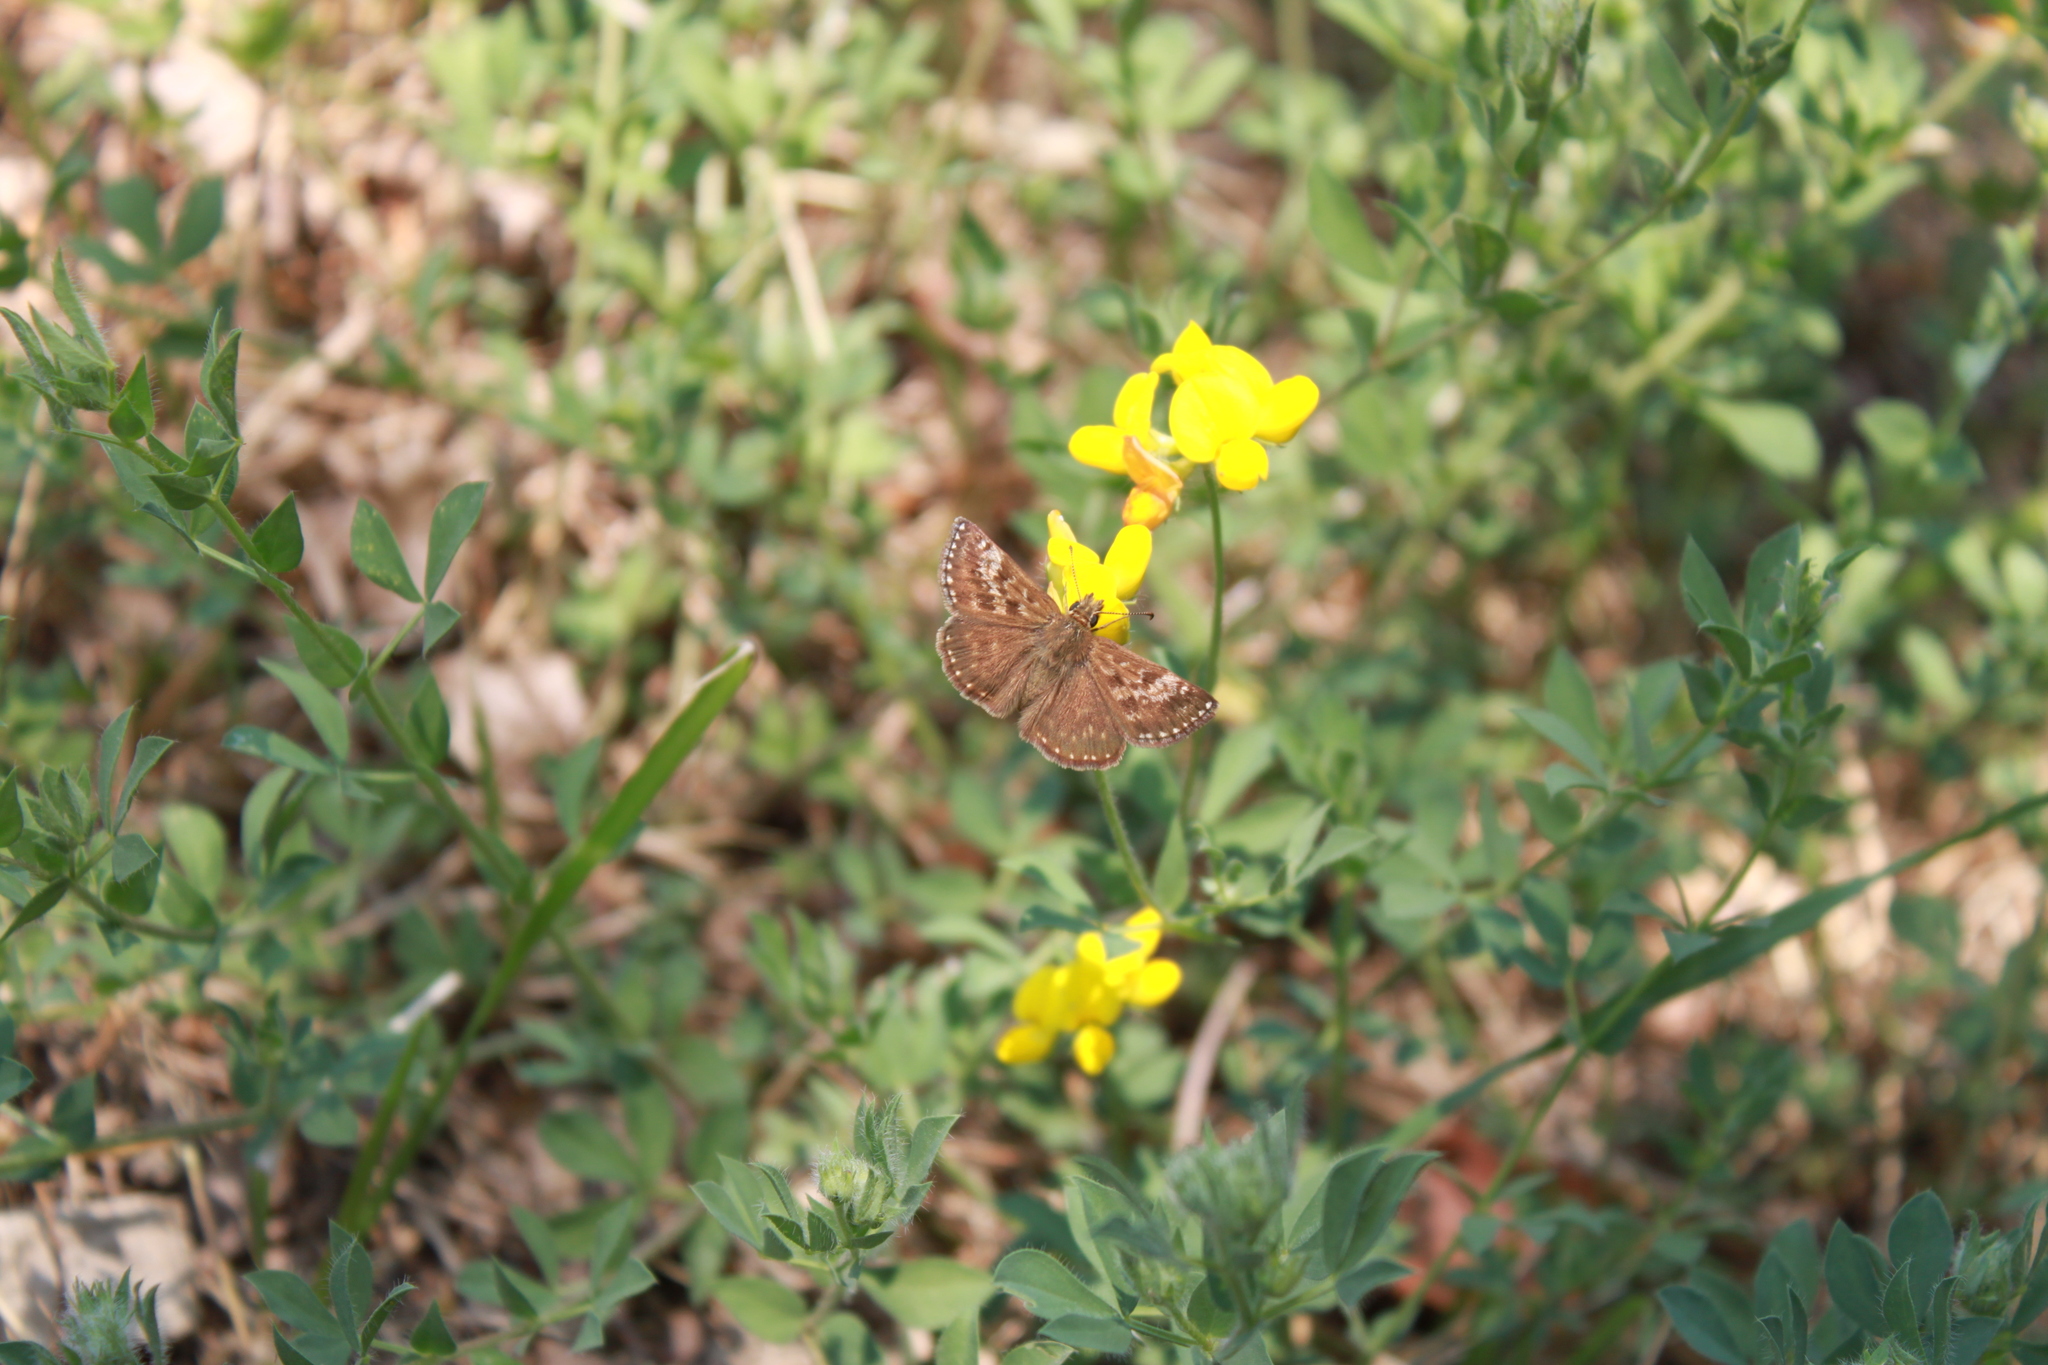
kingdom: Animalia
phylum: Arthropoda
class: Insecta
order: Lepidoptera
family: Hesperiidae
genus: Erynnis
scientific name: Erynnis tages
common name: Dingy skipper
